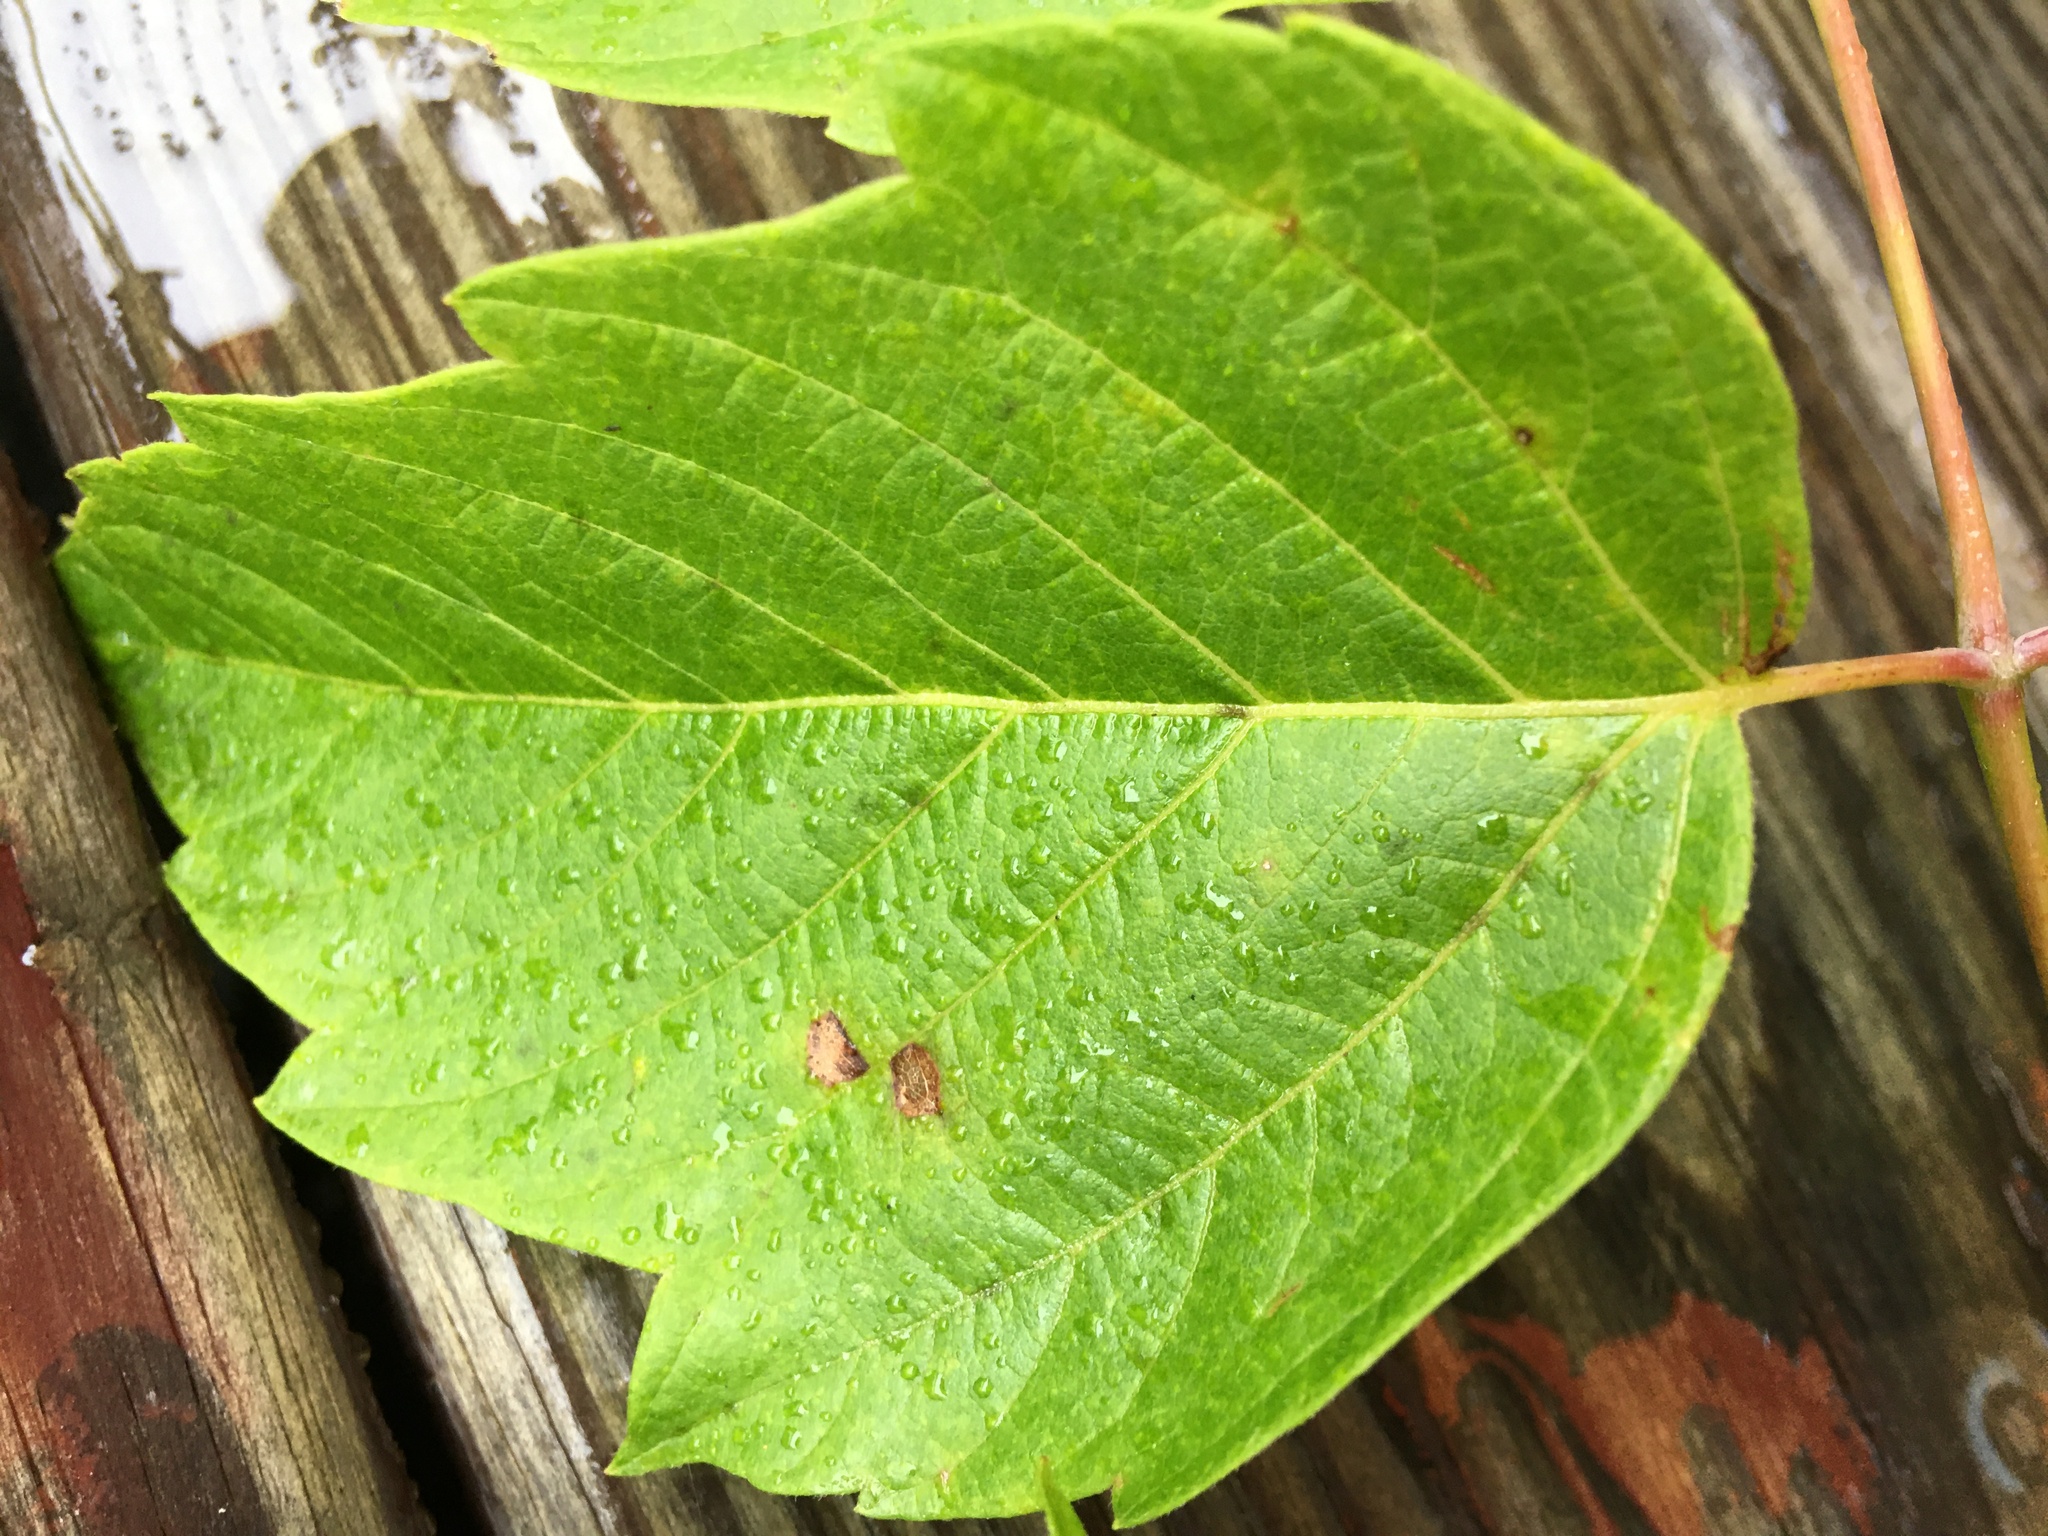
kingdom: Plantae
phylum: Tracheophyta
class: Magnoliopsida
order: Sapindales
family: Sapindaceae
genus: Acer
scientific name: Acer negundo
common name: Ashleaf maple
